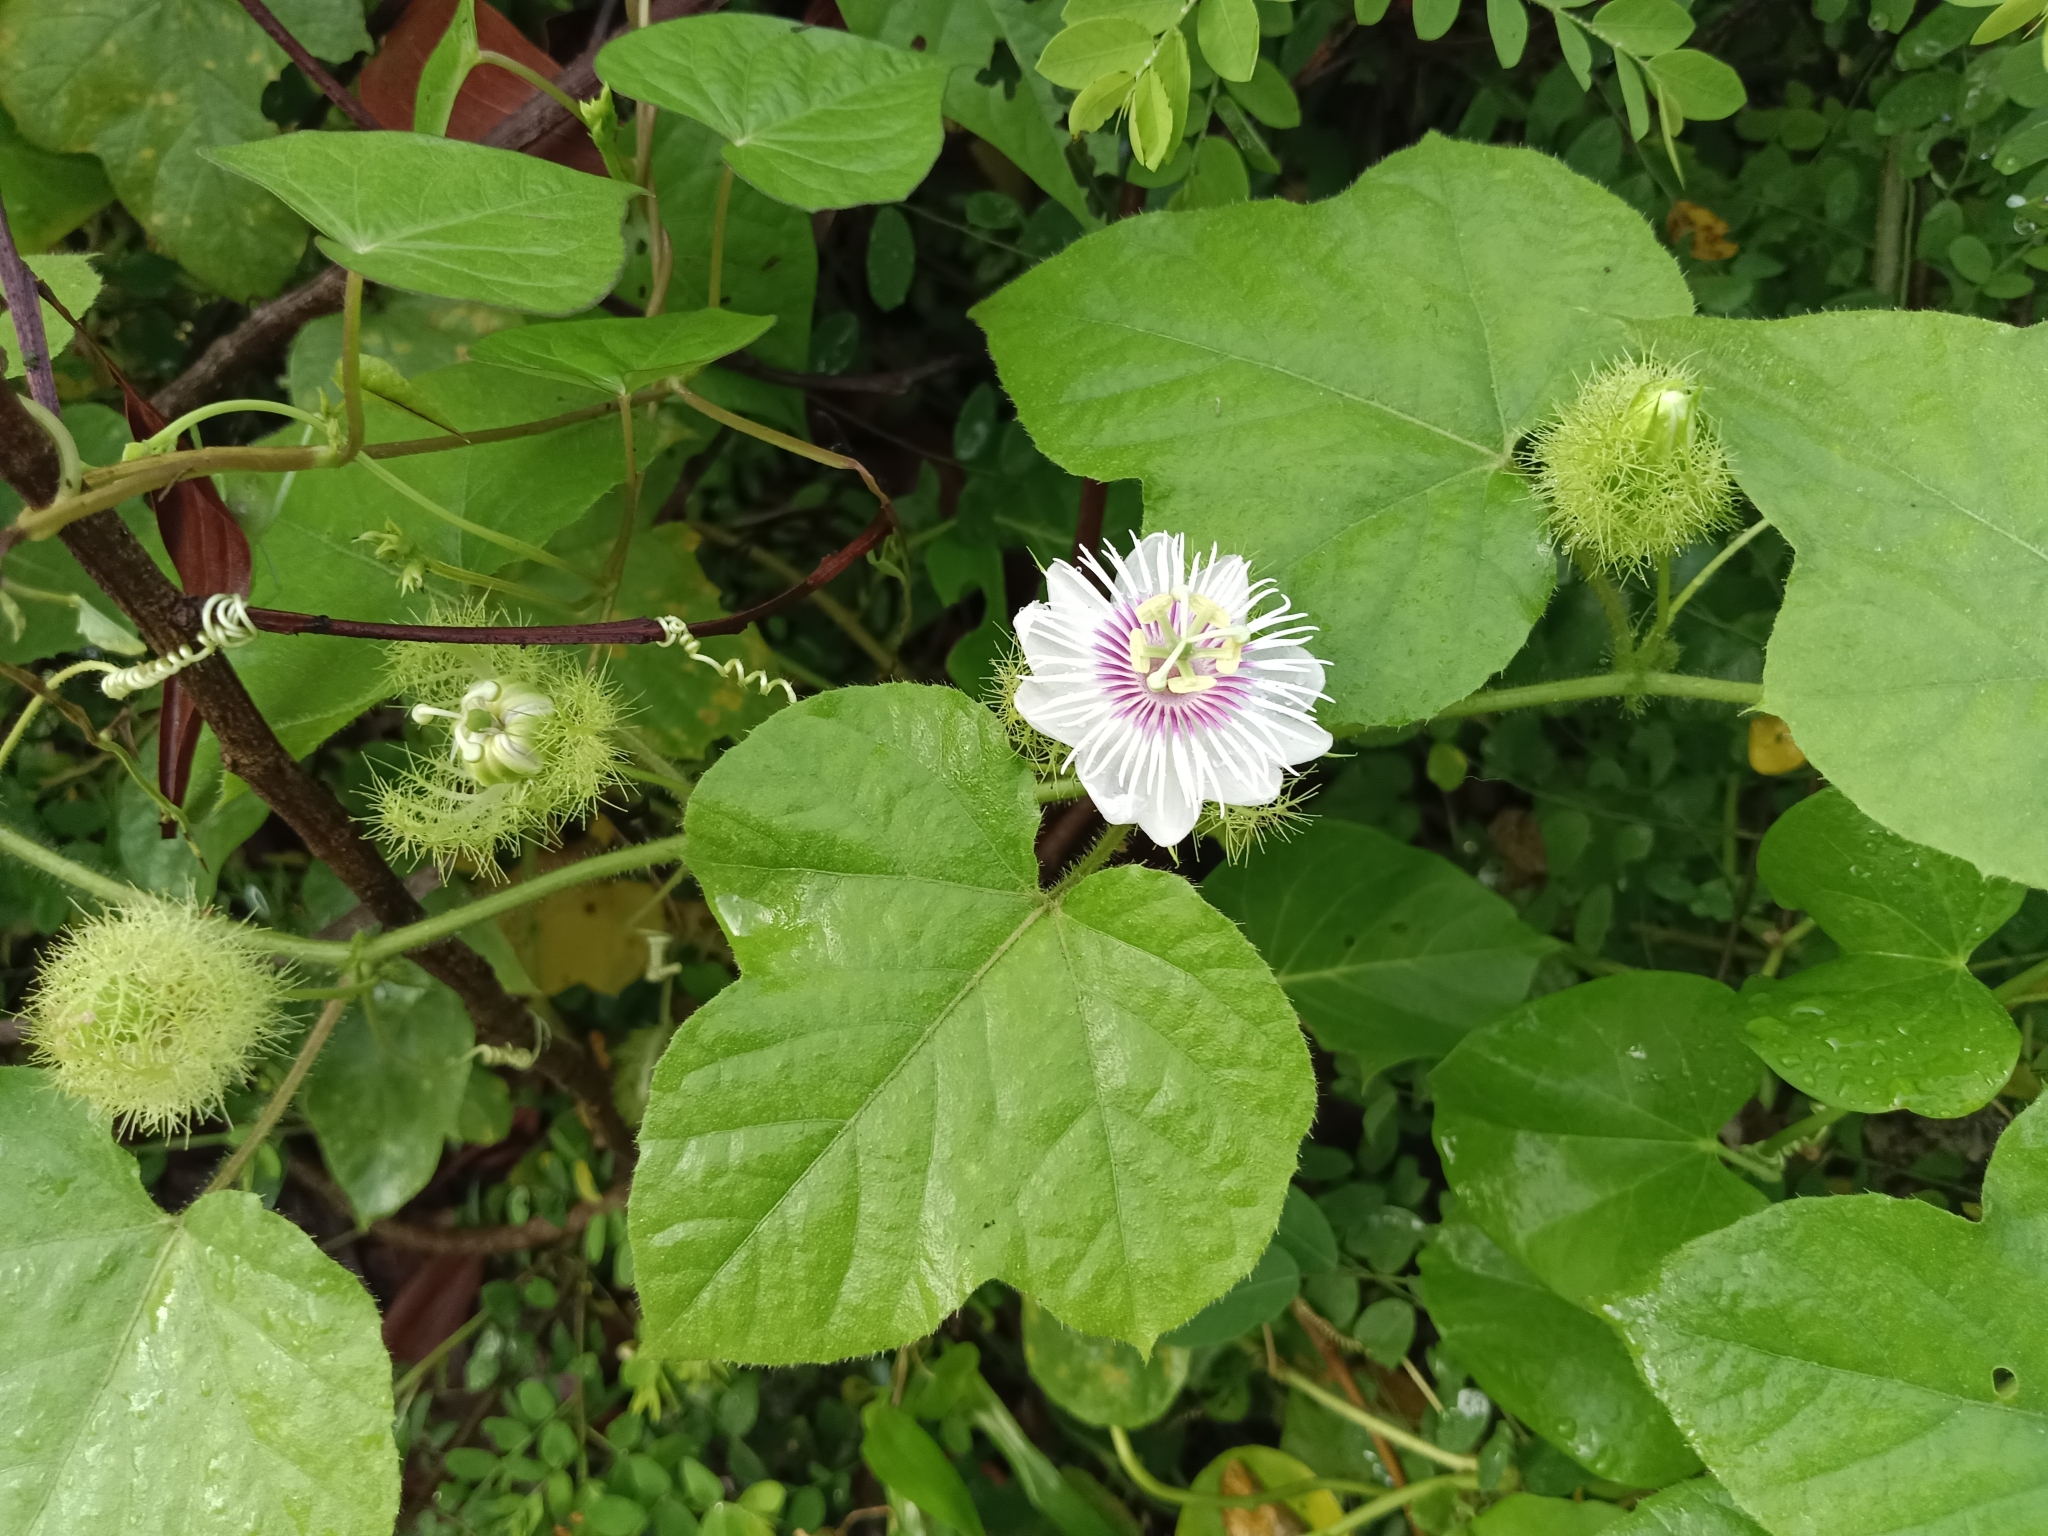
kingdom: Plantae
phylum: Tracheophyta
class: Magnoliopsida
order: Malpighiales
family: Passifloraceae
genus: Passiflora
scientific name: Passiflora vesicaria
